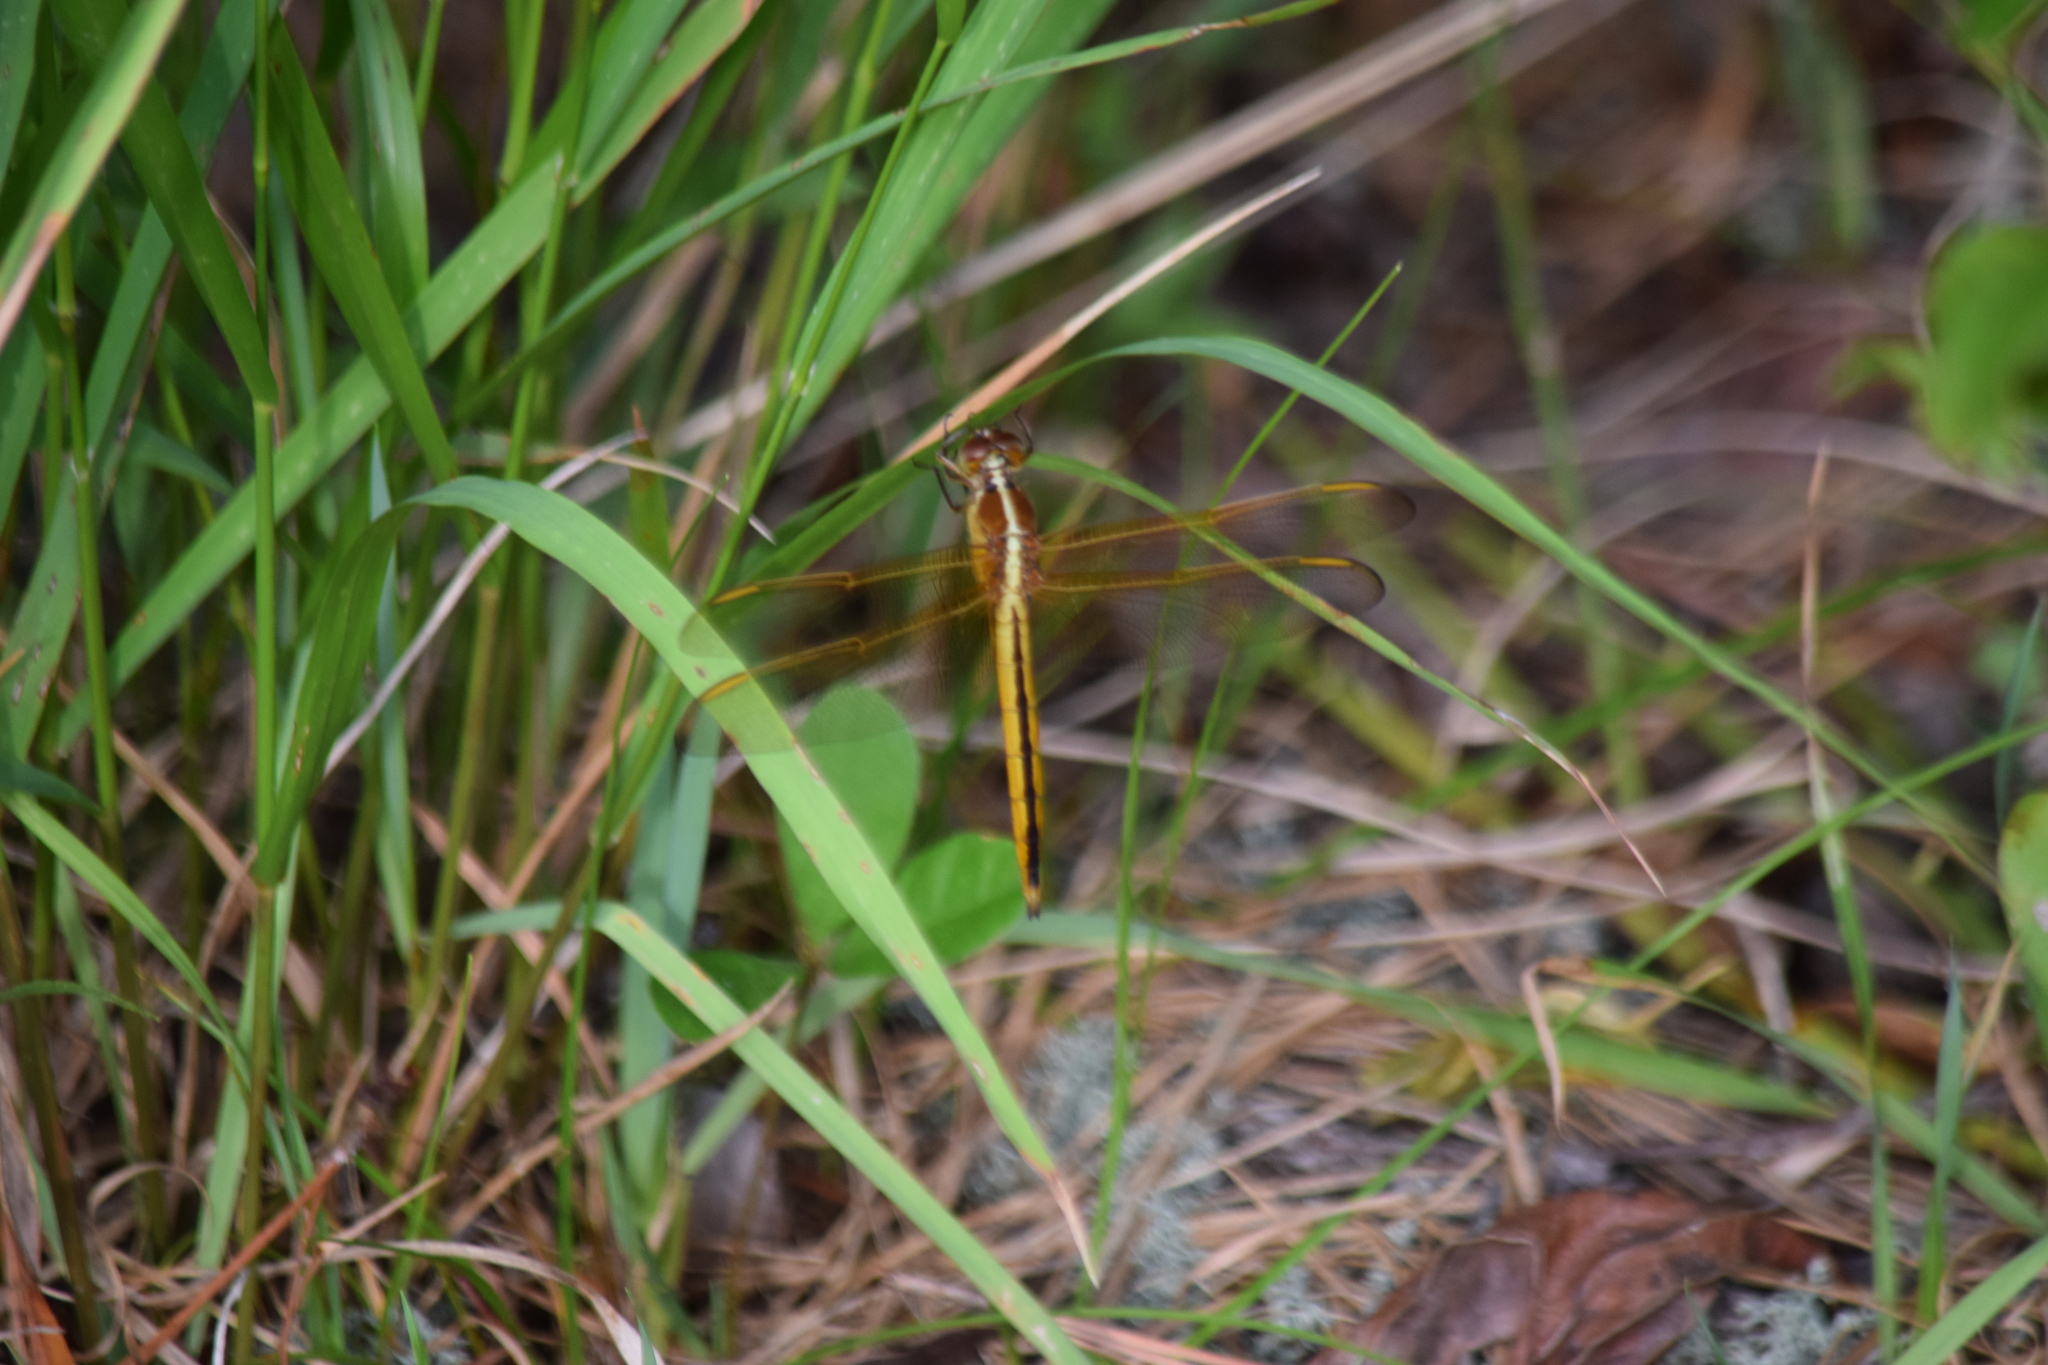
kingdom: Animalia
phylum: Arthropoda
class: Insecta
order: Odonata
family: Libellulidae
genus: Libellula
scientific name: Libellula needhami
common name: Needham's skimmer
